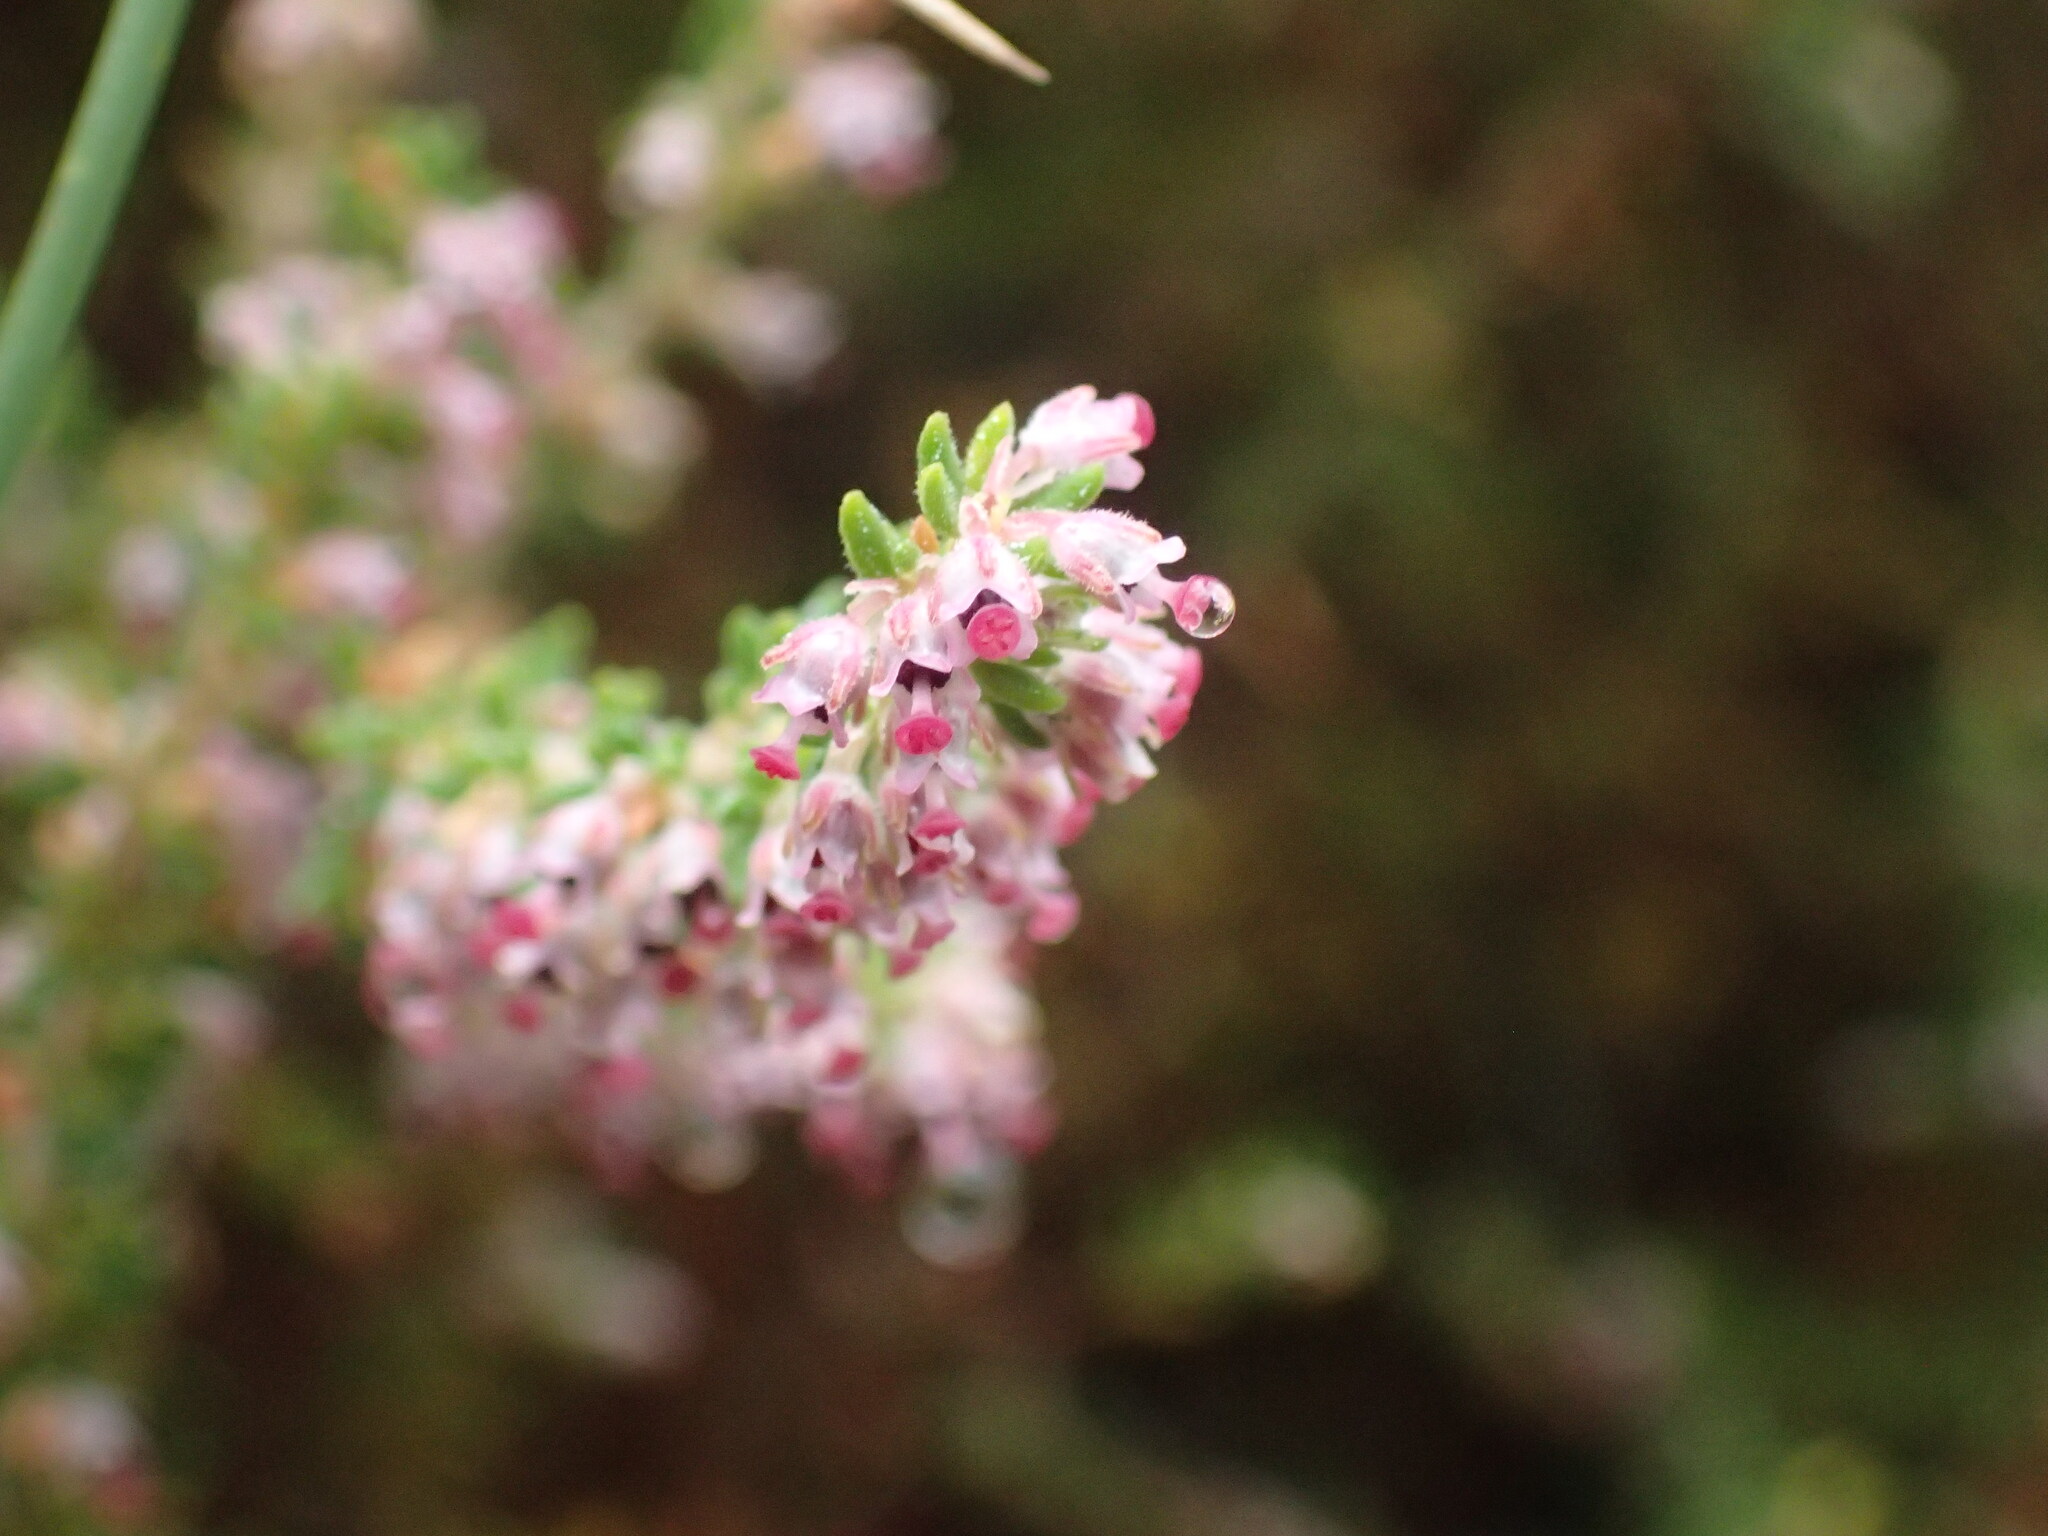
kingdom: Plantae
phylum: Tracheophyta
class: Magnoliopsida
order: Ericales
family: Ericaceae
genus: Erica
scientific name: Erica hispidula
